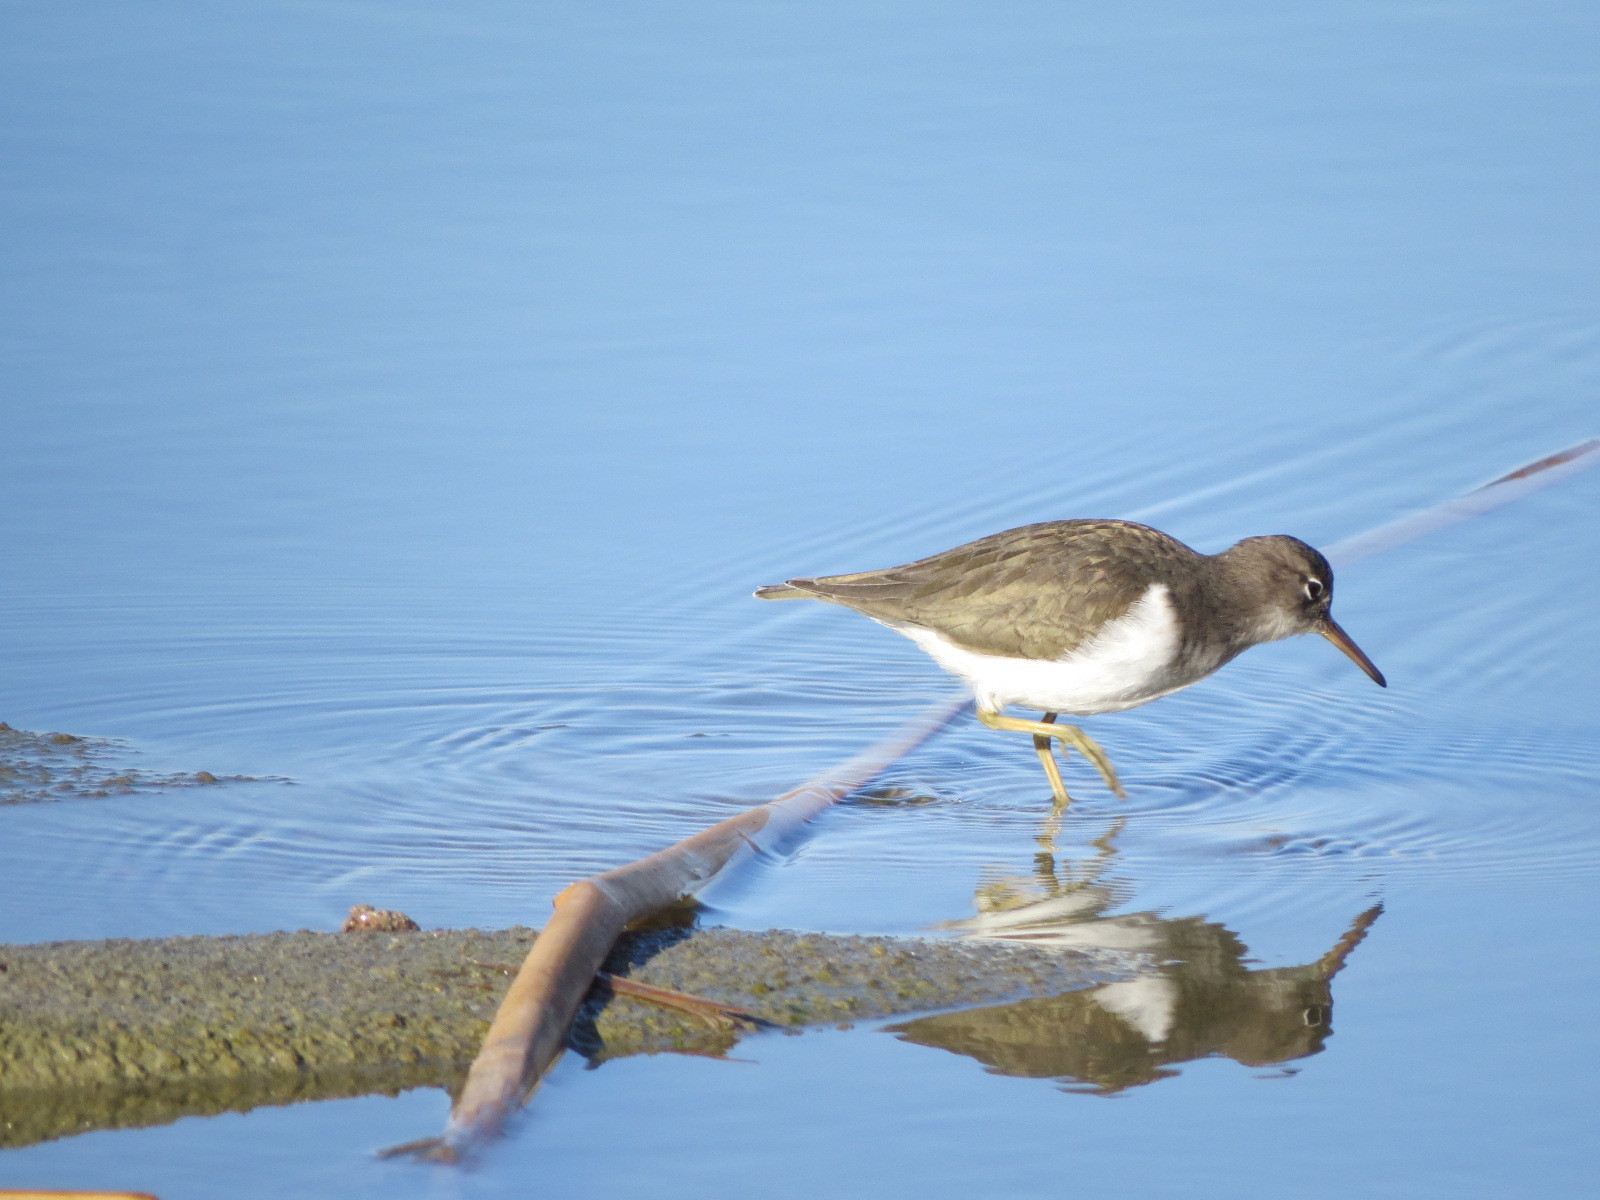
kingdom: Animalia
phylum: Chordata
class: Aves
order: Charadriiformes
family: Scolopacidae
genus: Actitis
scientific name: Actitis macularius
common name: Spotted sandpiper
